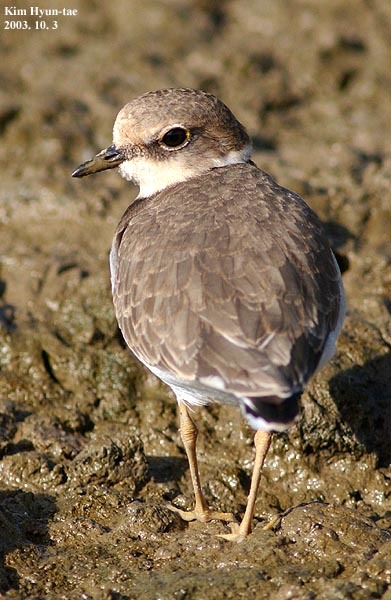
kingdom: Animalia
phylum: Chordata
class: Aves
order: Charadriiformes
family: Charadriidae
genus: Charadrius
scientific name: Charadrius dubius
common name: Little ringed plover
